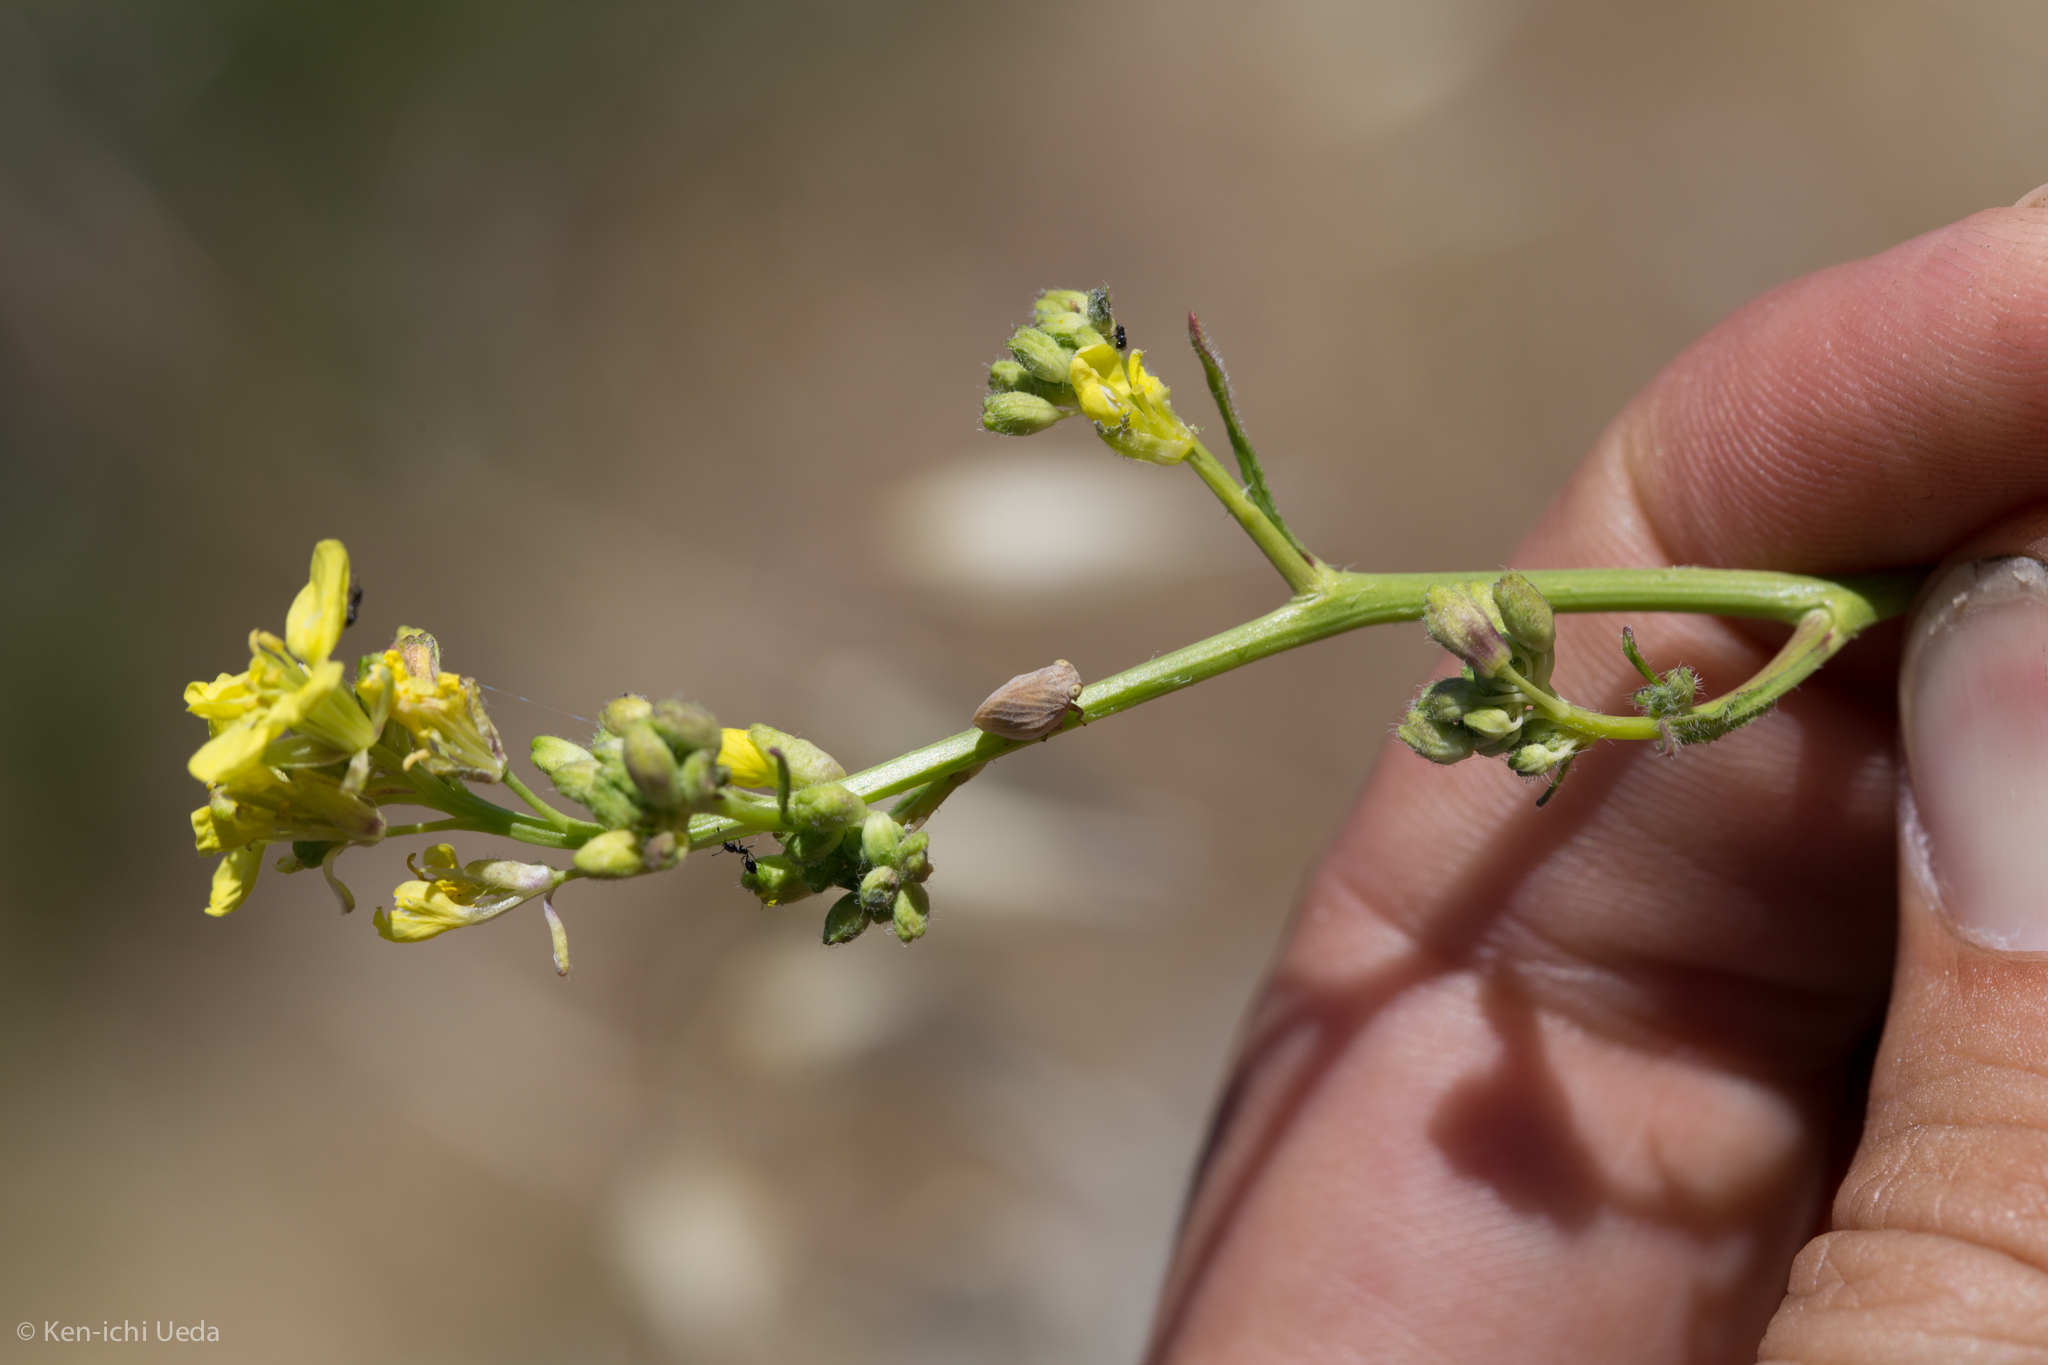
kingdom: Animalia
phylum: Arthropoda
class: Insecta
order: Hemiptera
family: Issidae
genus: Agalmatium
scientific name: Agalmatium bilobum
